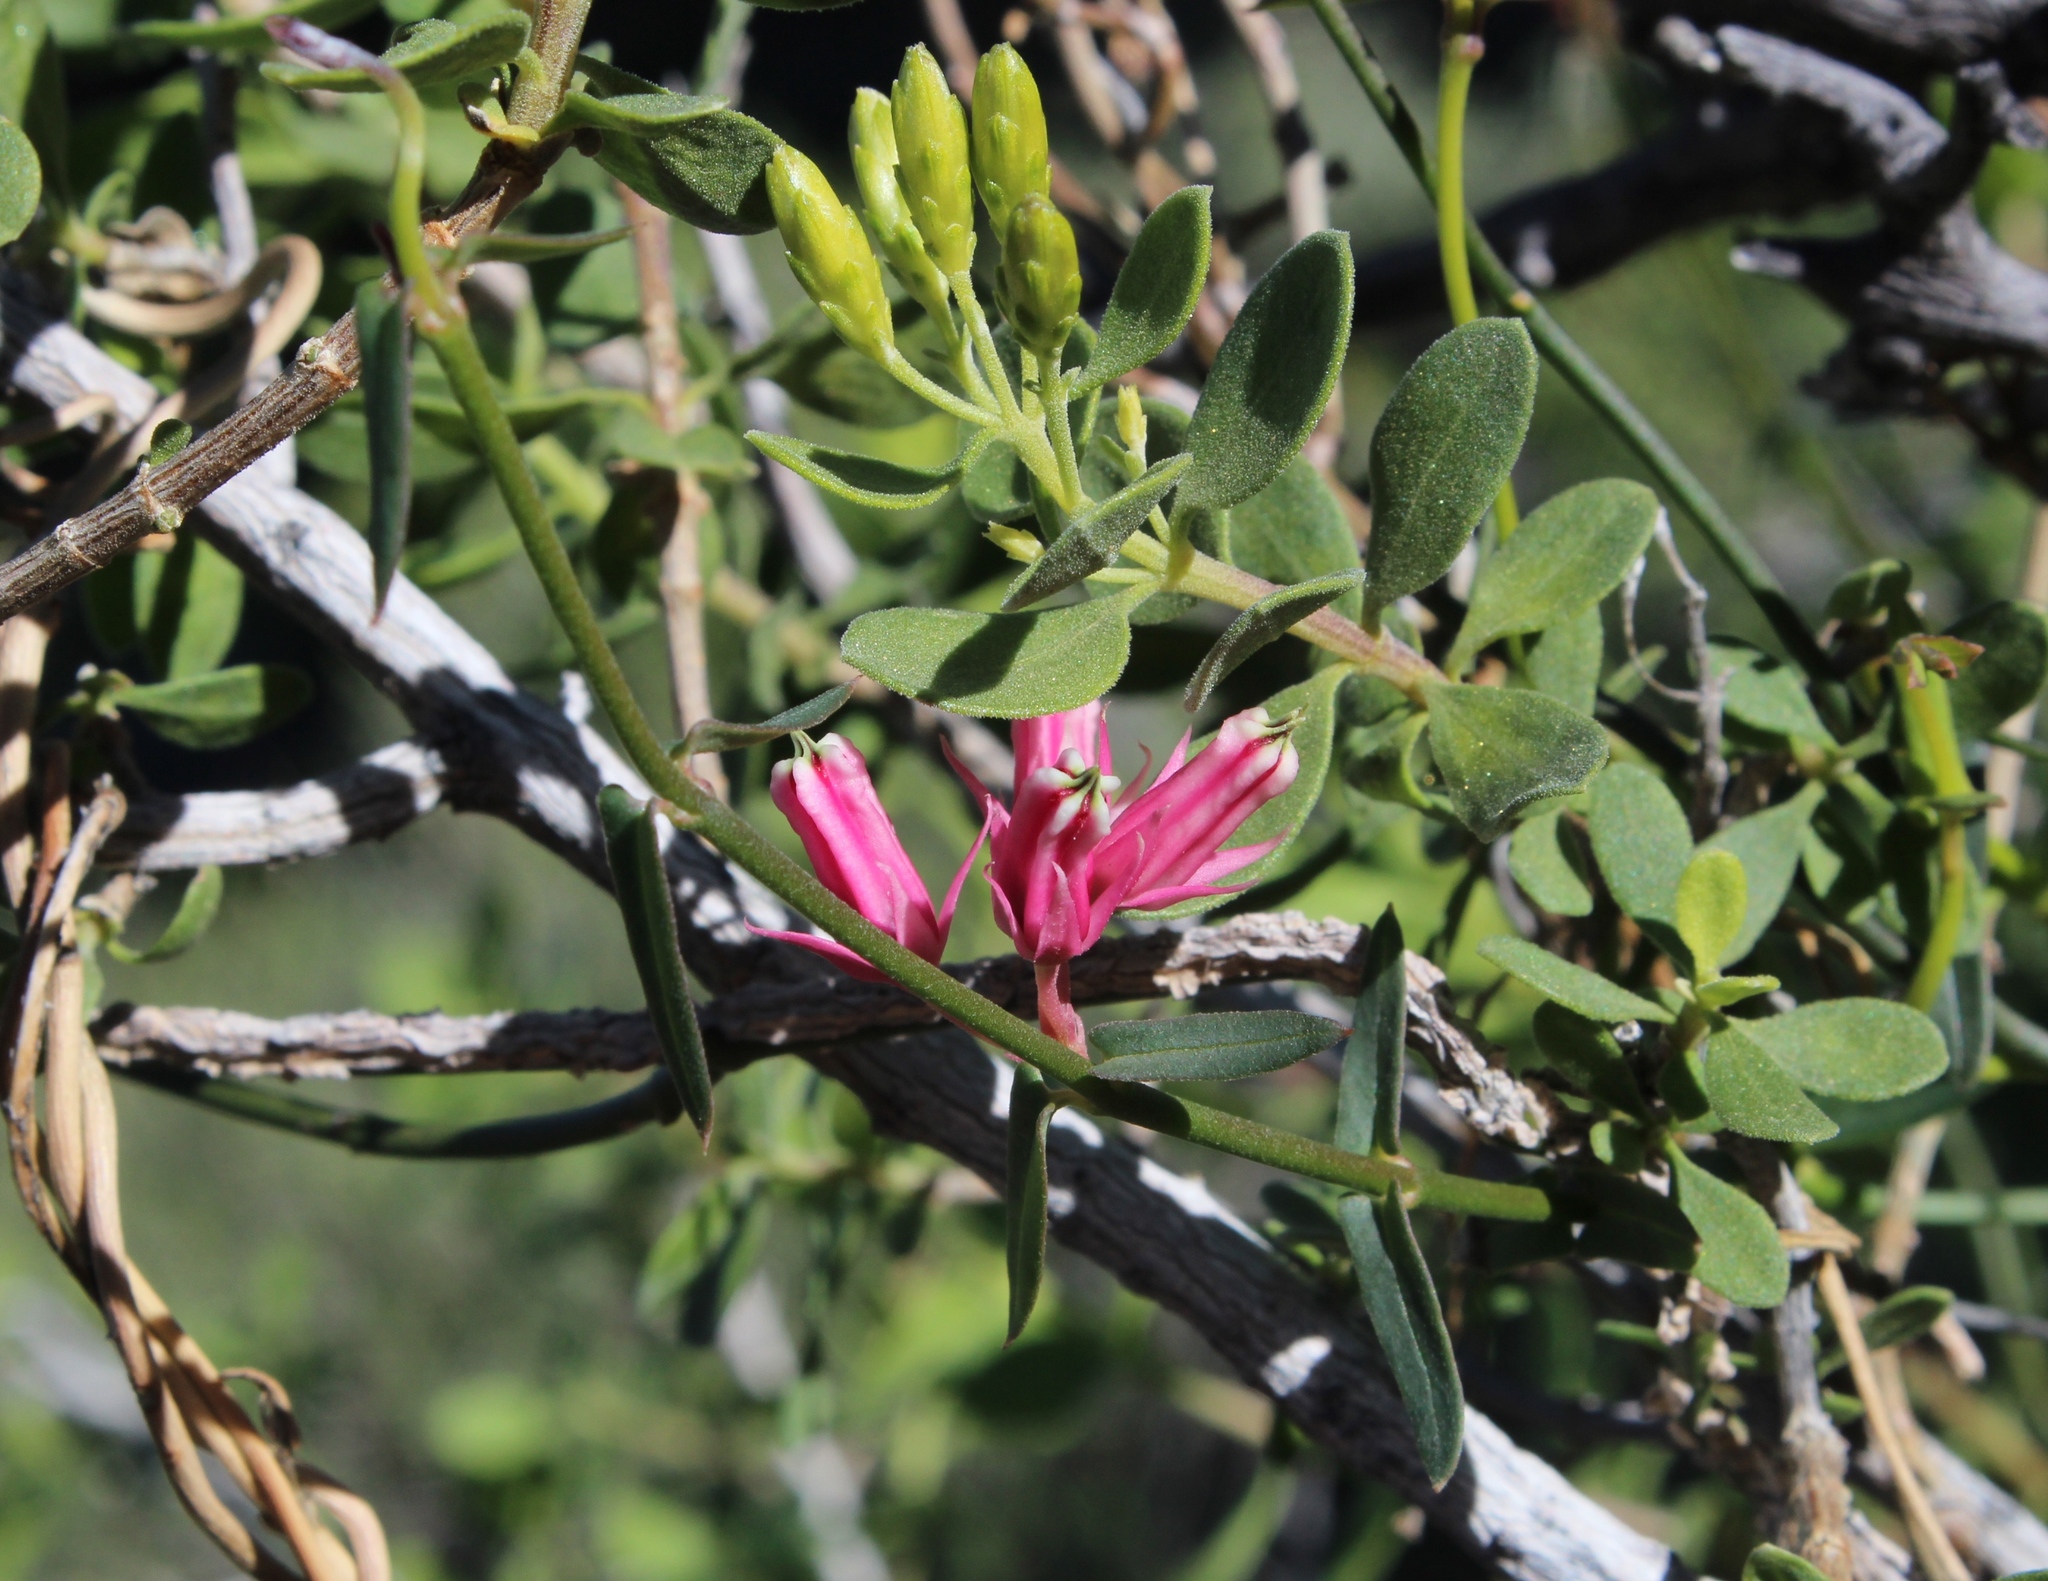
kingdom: Plantae
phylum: Tracheophyta
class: Magnoliopsida
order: Gentianales
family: Apocynaceae
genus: Microloma
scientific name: Microloma sagittatum
